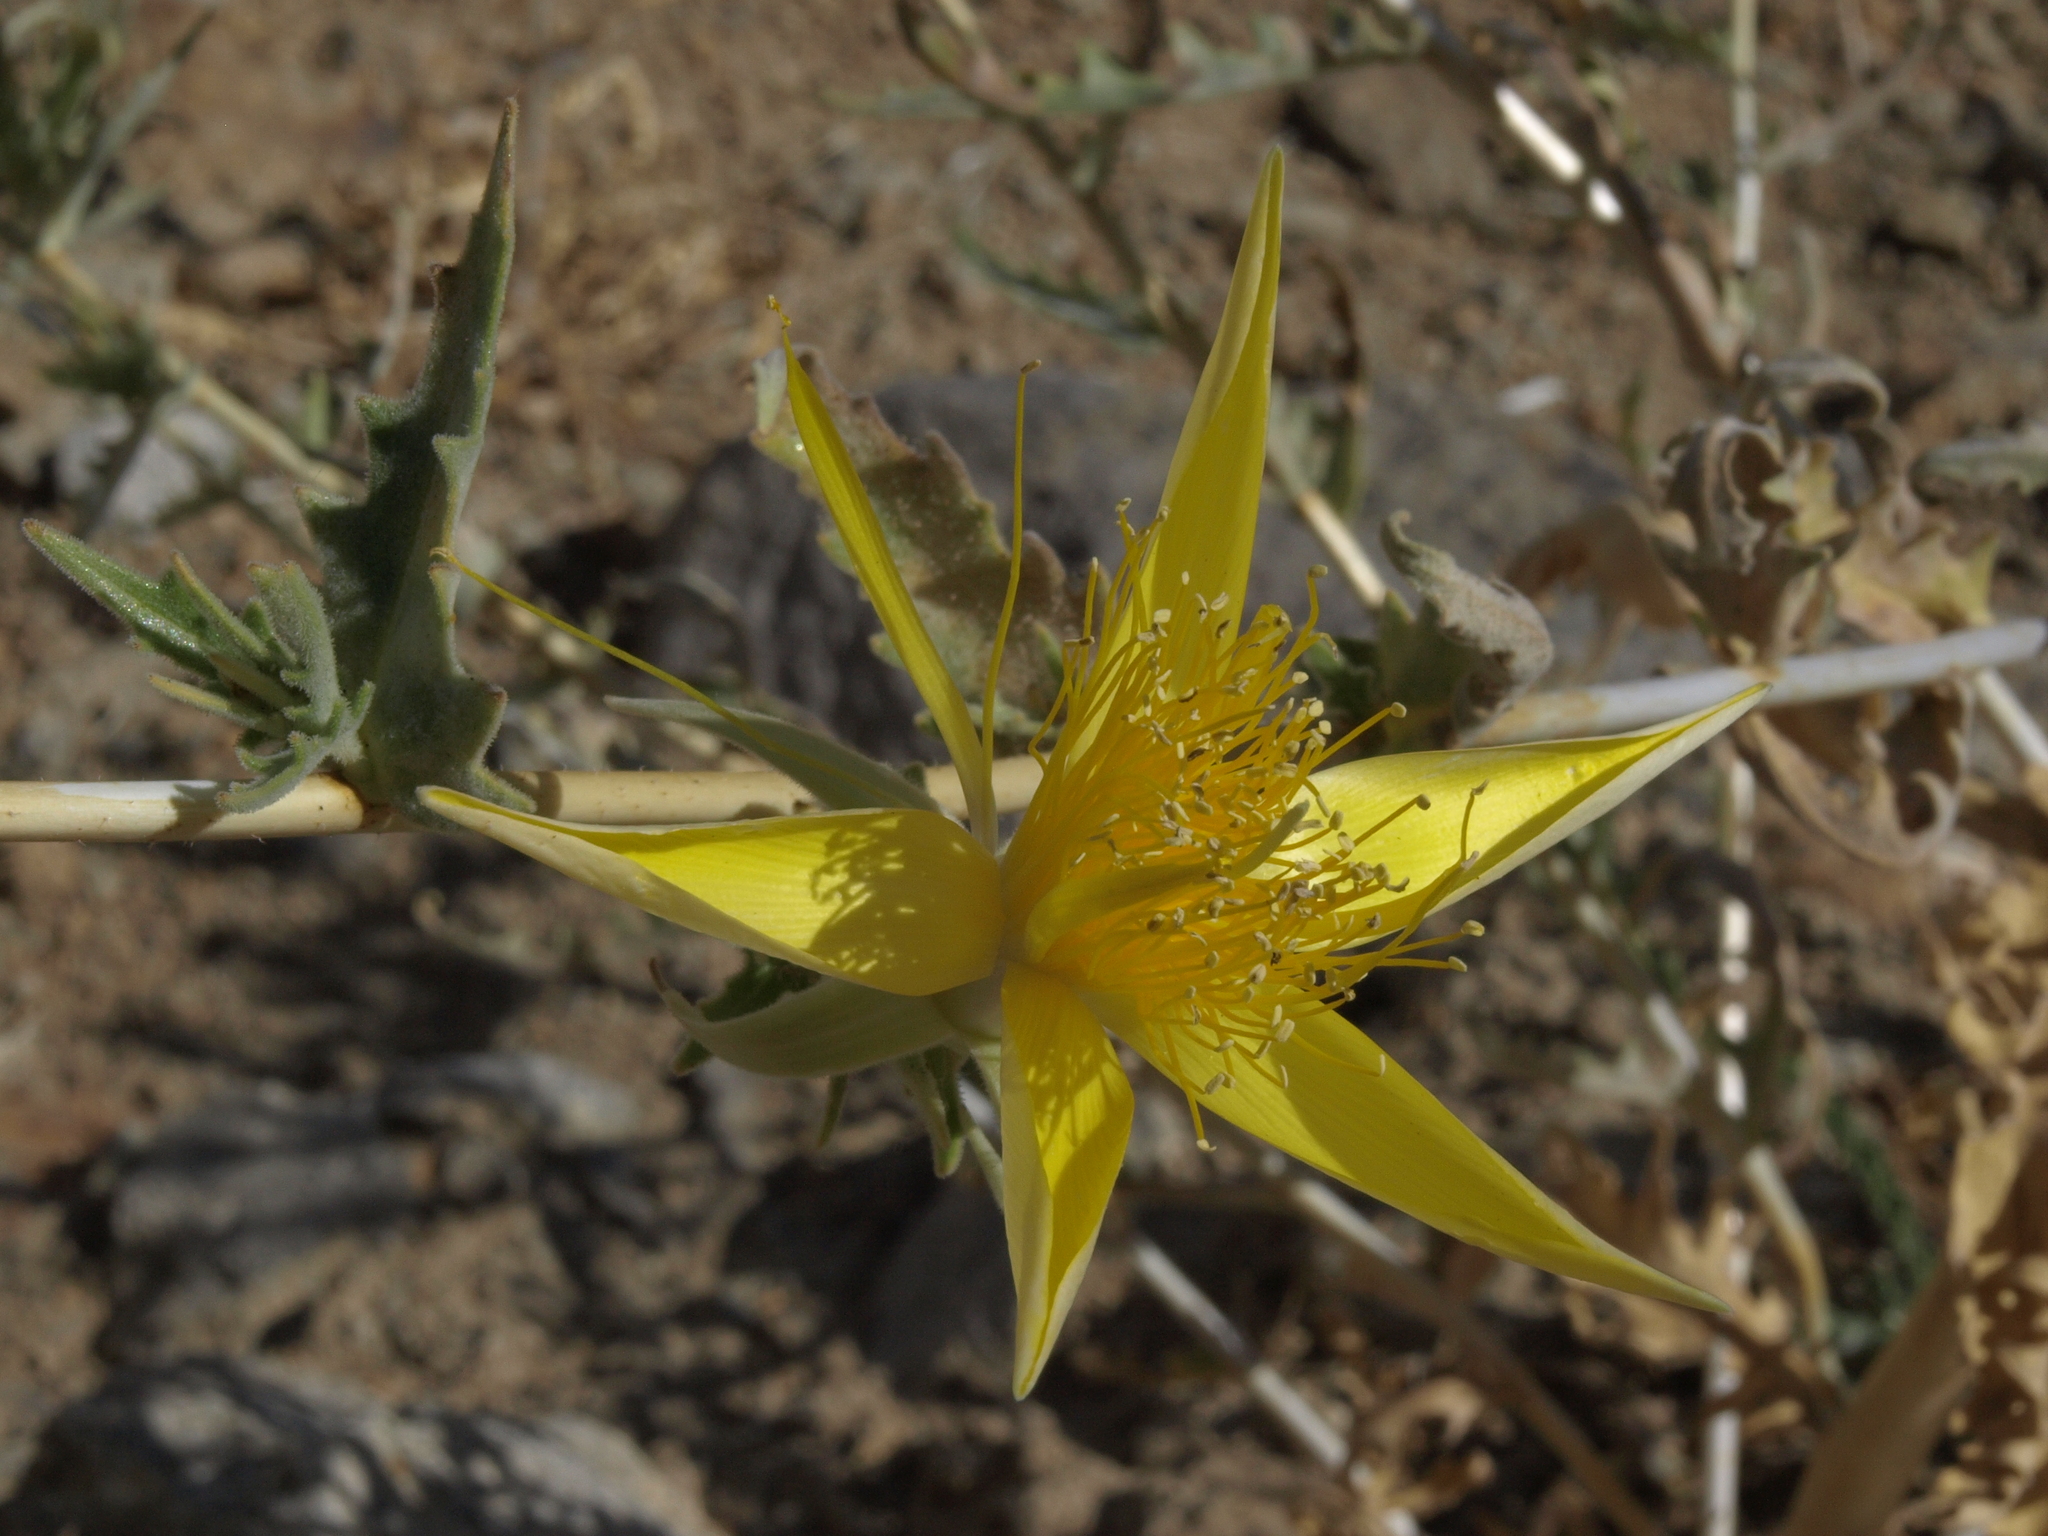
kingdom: Plantae
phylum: Tracheophyta
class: Magnoliopsida
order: Cornales
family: Loasaceae
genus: Mentzelia
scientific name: Mentzelia laevicaulis
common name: Smooth-stem blazingstar
